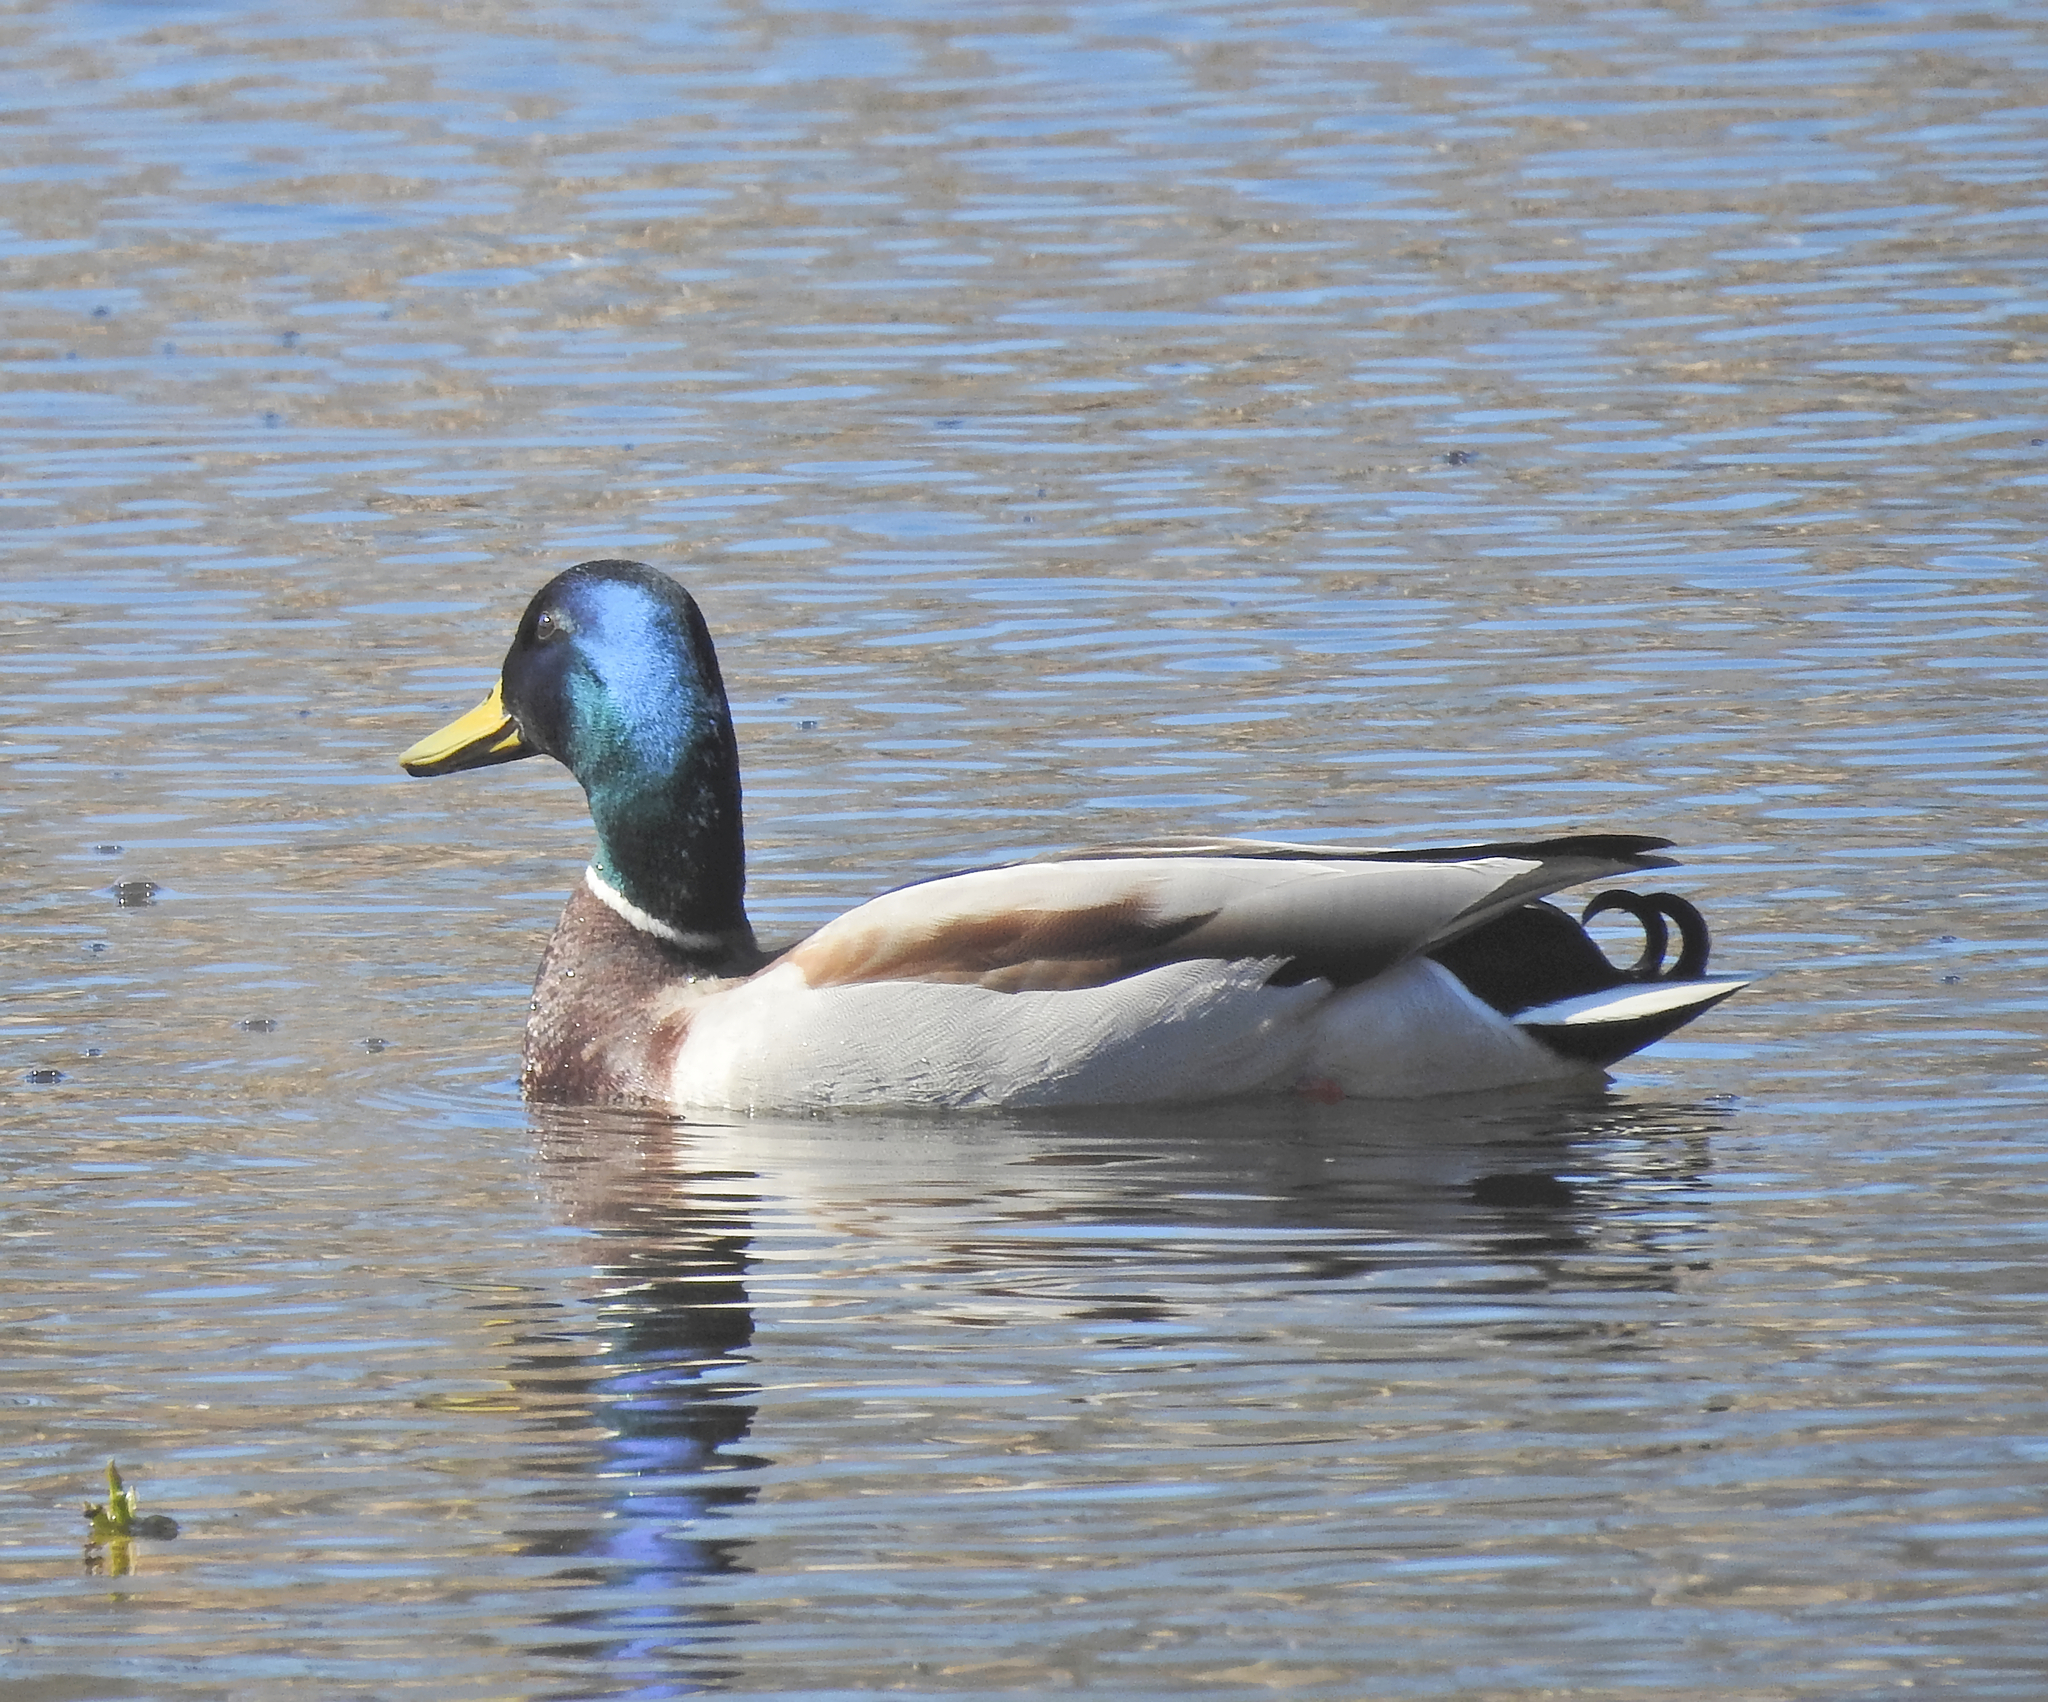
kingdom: Animalia
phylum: Chordata
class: Aves
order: Anseriformes
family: Anatidae
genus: Anas
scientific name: Anas platyrhynchos
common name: Mallard
